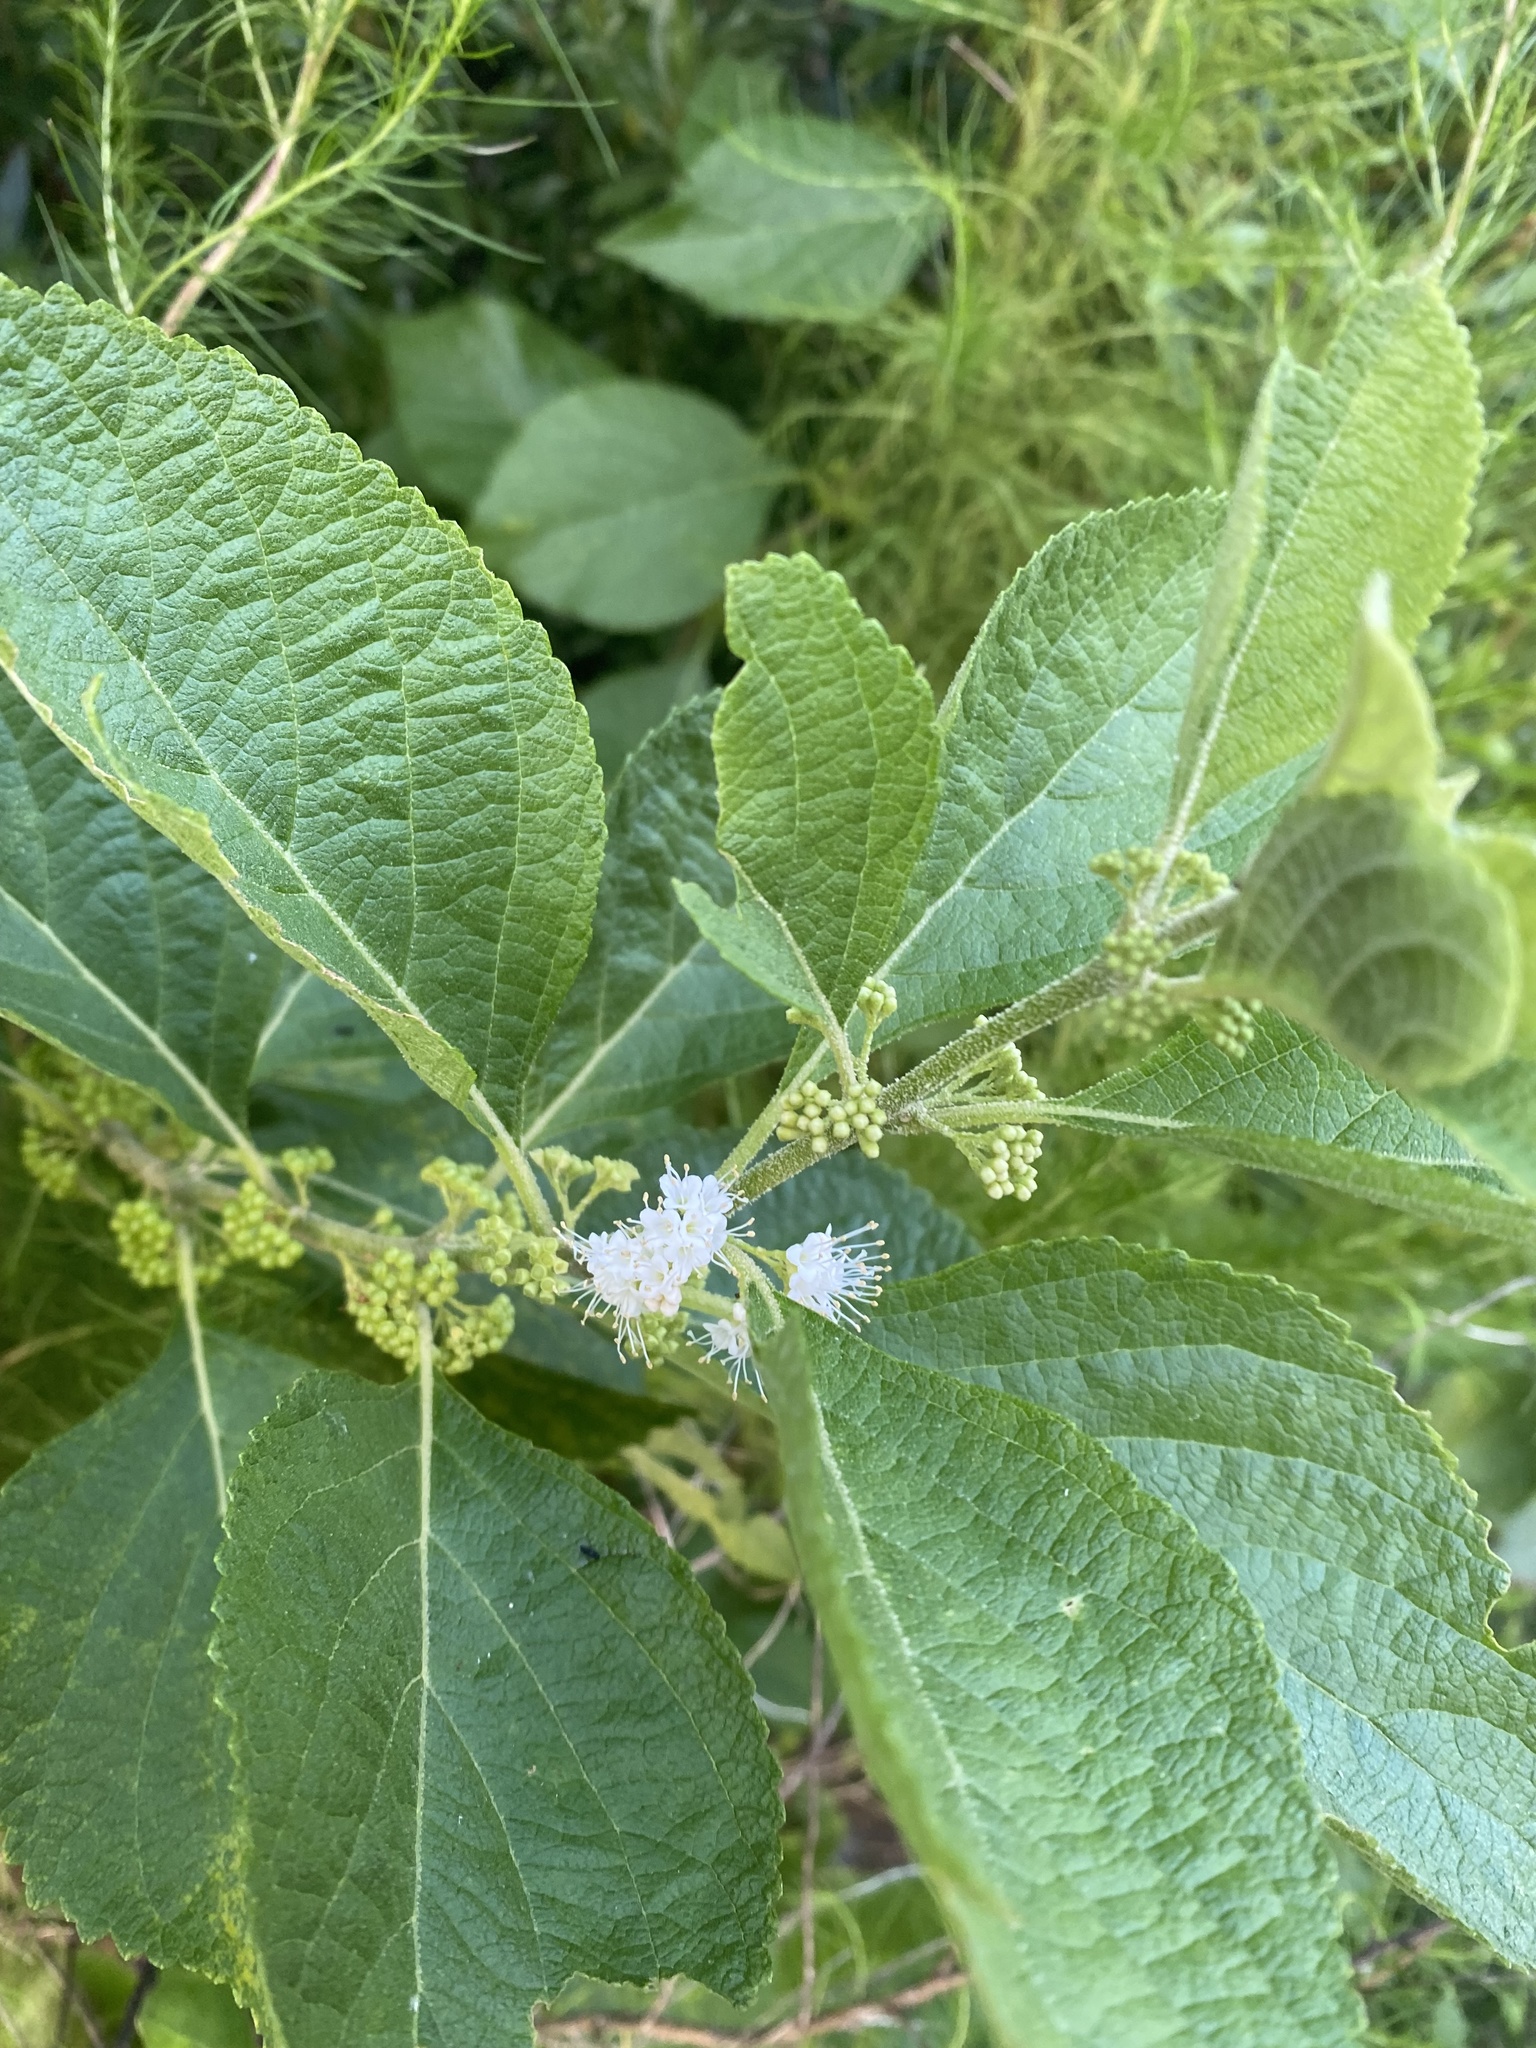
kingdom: Plantae
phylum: Tracheophyta
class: Magnoliopsida
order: Lamiales
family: Lamiaceae
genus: Callicarpa
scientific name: Callicarpa americana
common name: American beautyberry
